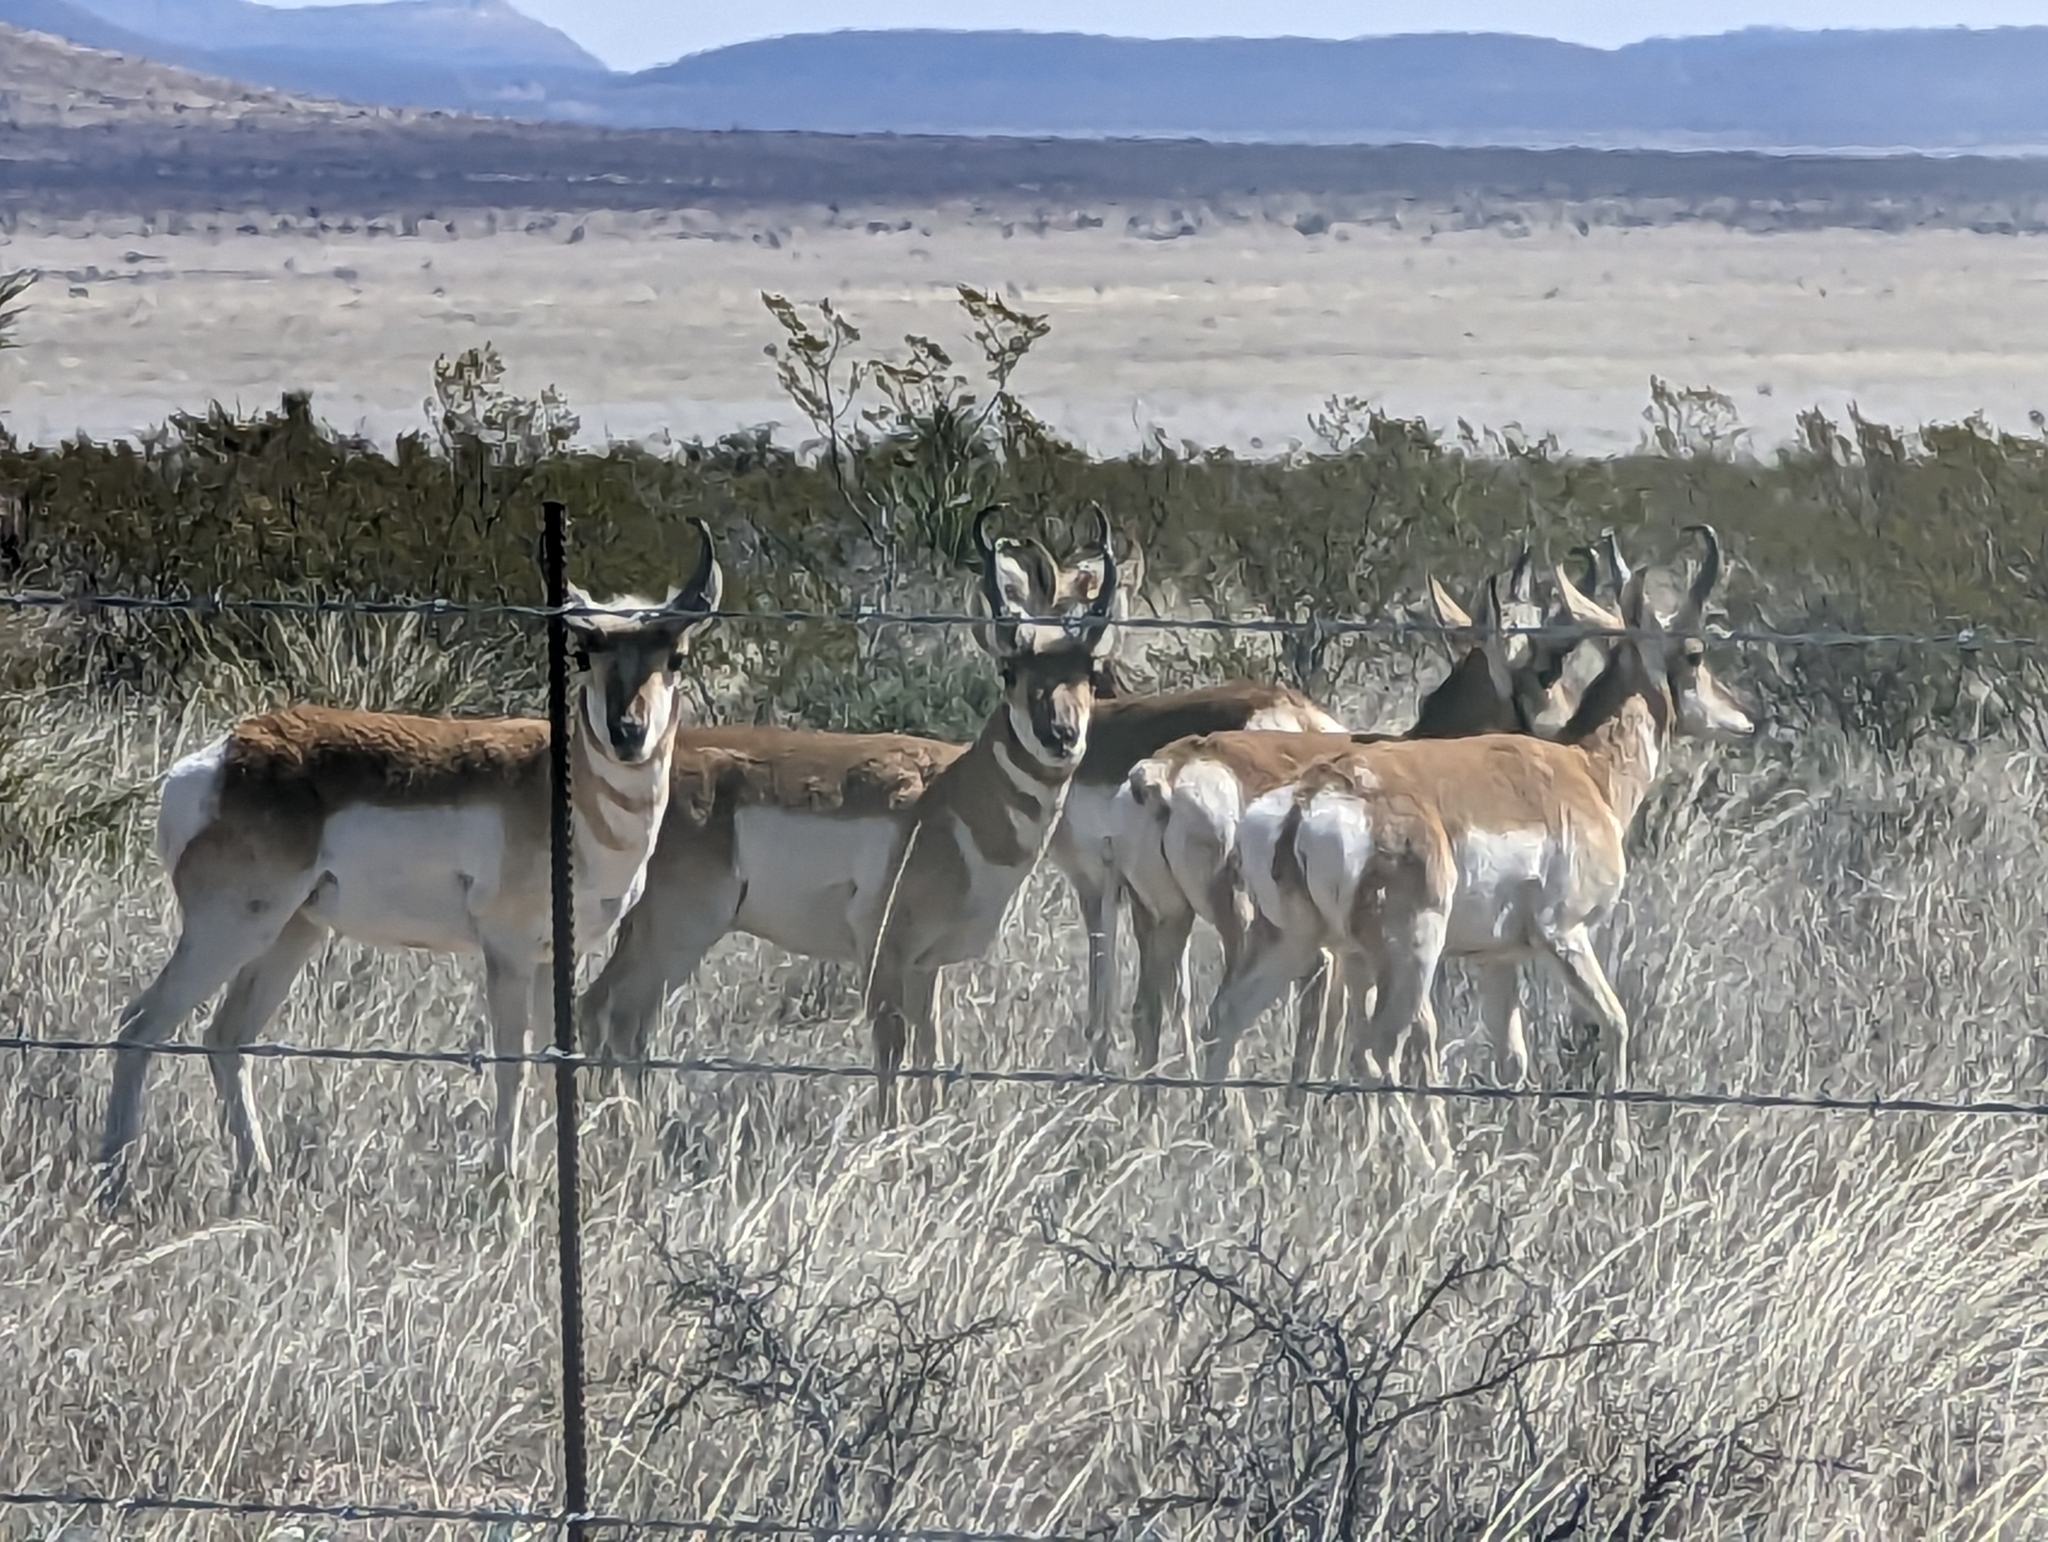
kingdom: Animalia
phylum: Chordata
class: Mammalia
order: Artiodactyla
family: Antilocapridae
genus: Antilocapra
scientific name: Antilocapra americana
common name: Pronghorn
